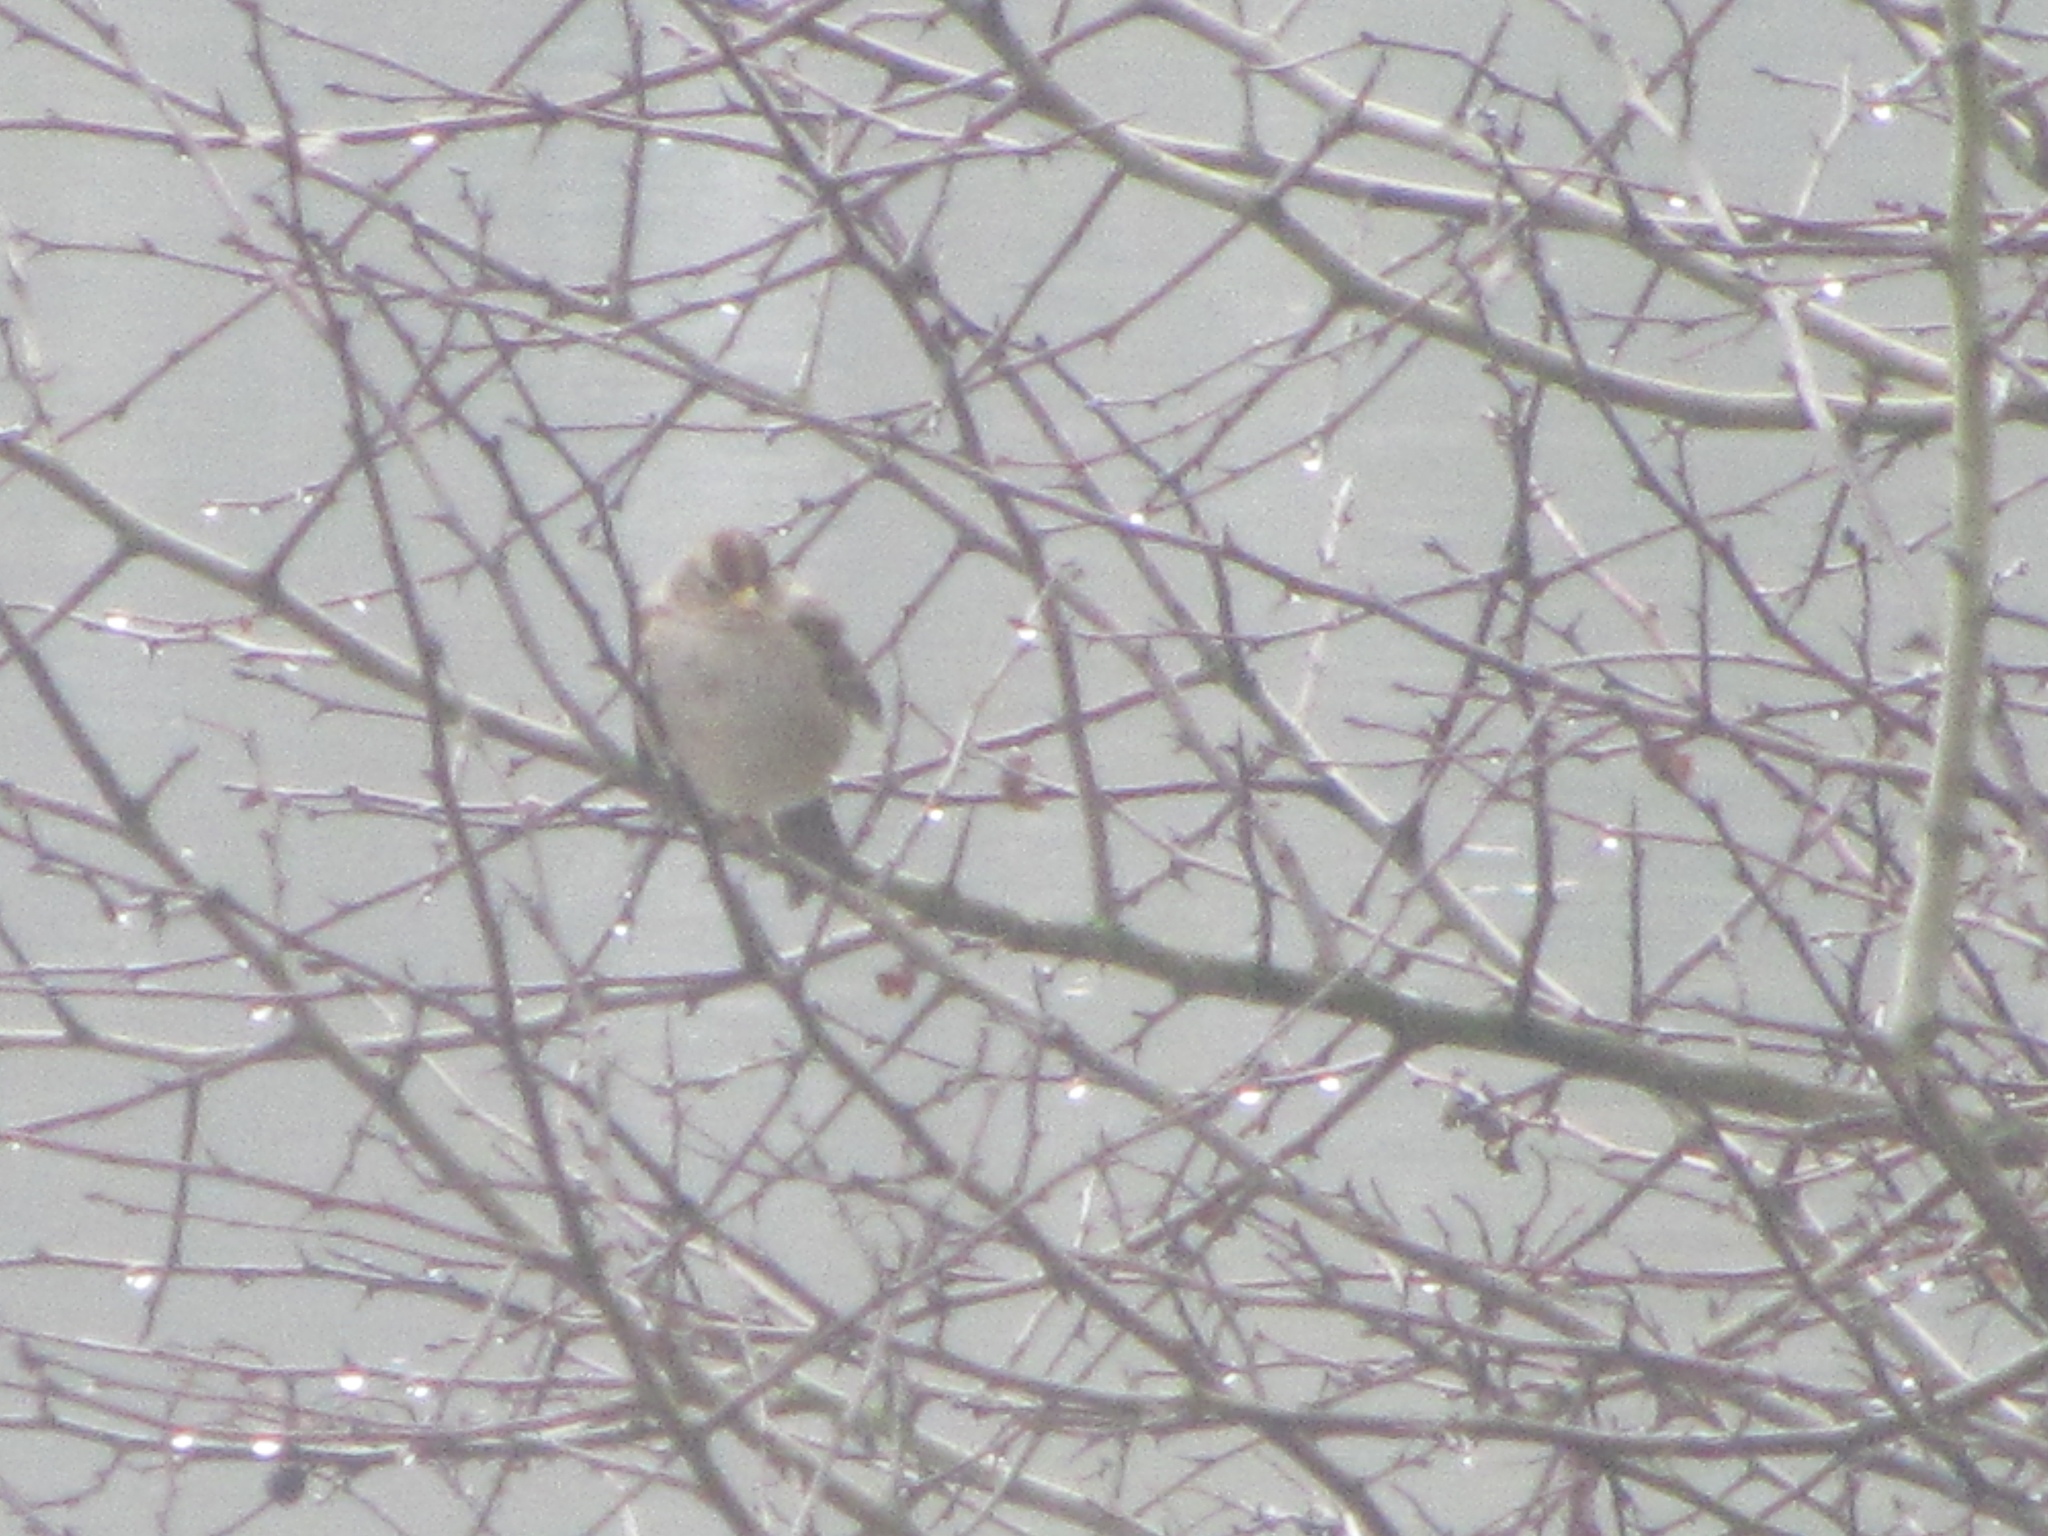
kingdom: Animalia
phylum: Chordata
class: Aves
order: Passeriformes
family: Passerellidae
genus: Zonotrichia
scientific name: Zonotrichia leucophrys
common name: White-crowned sparrow
